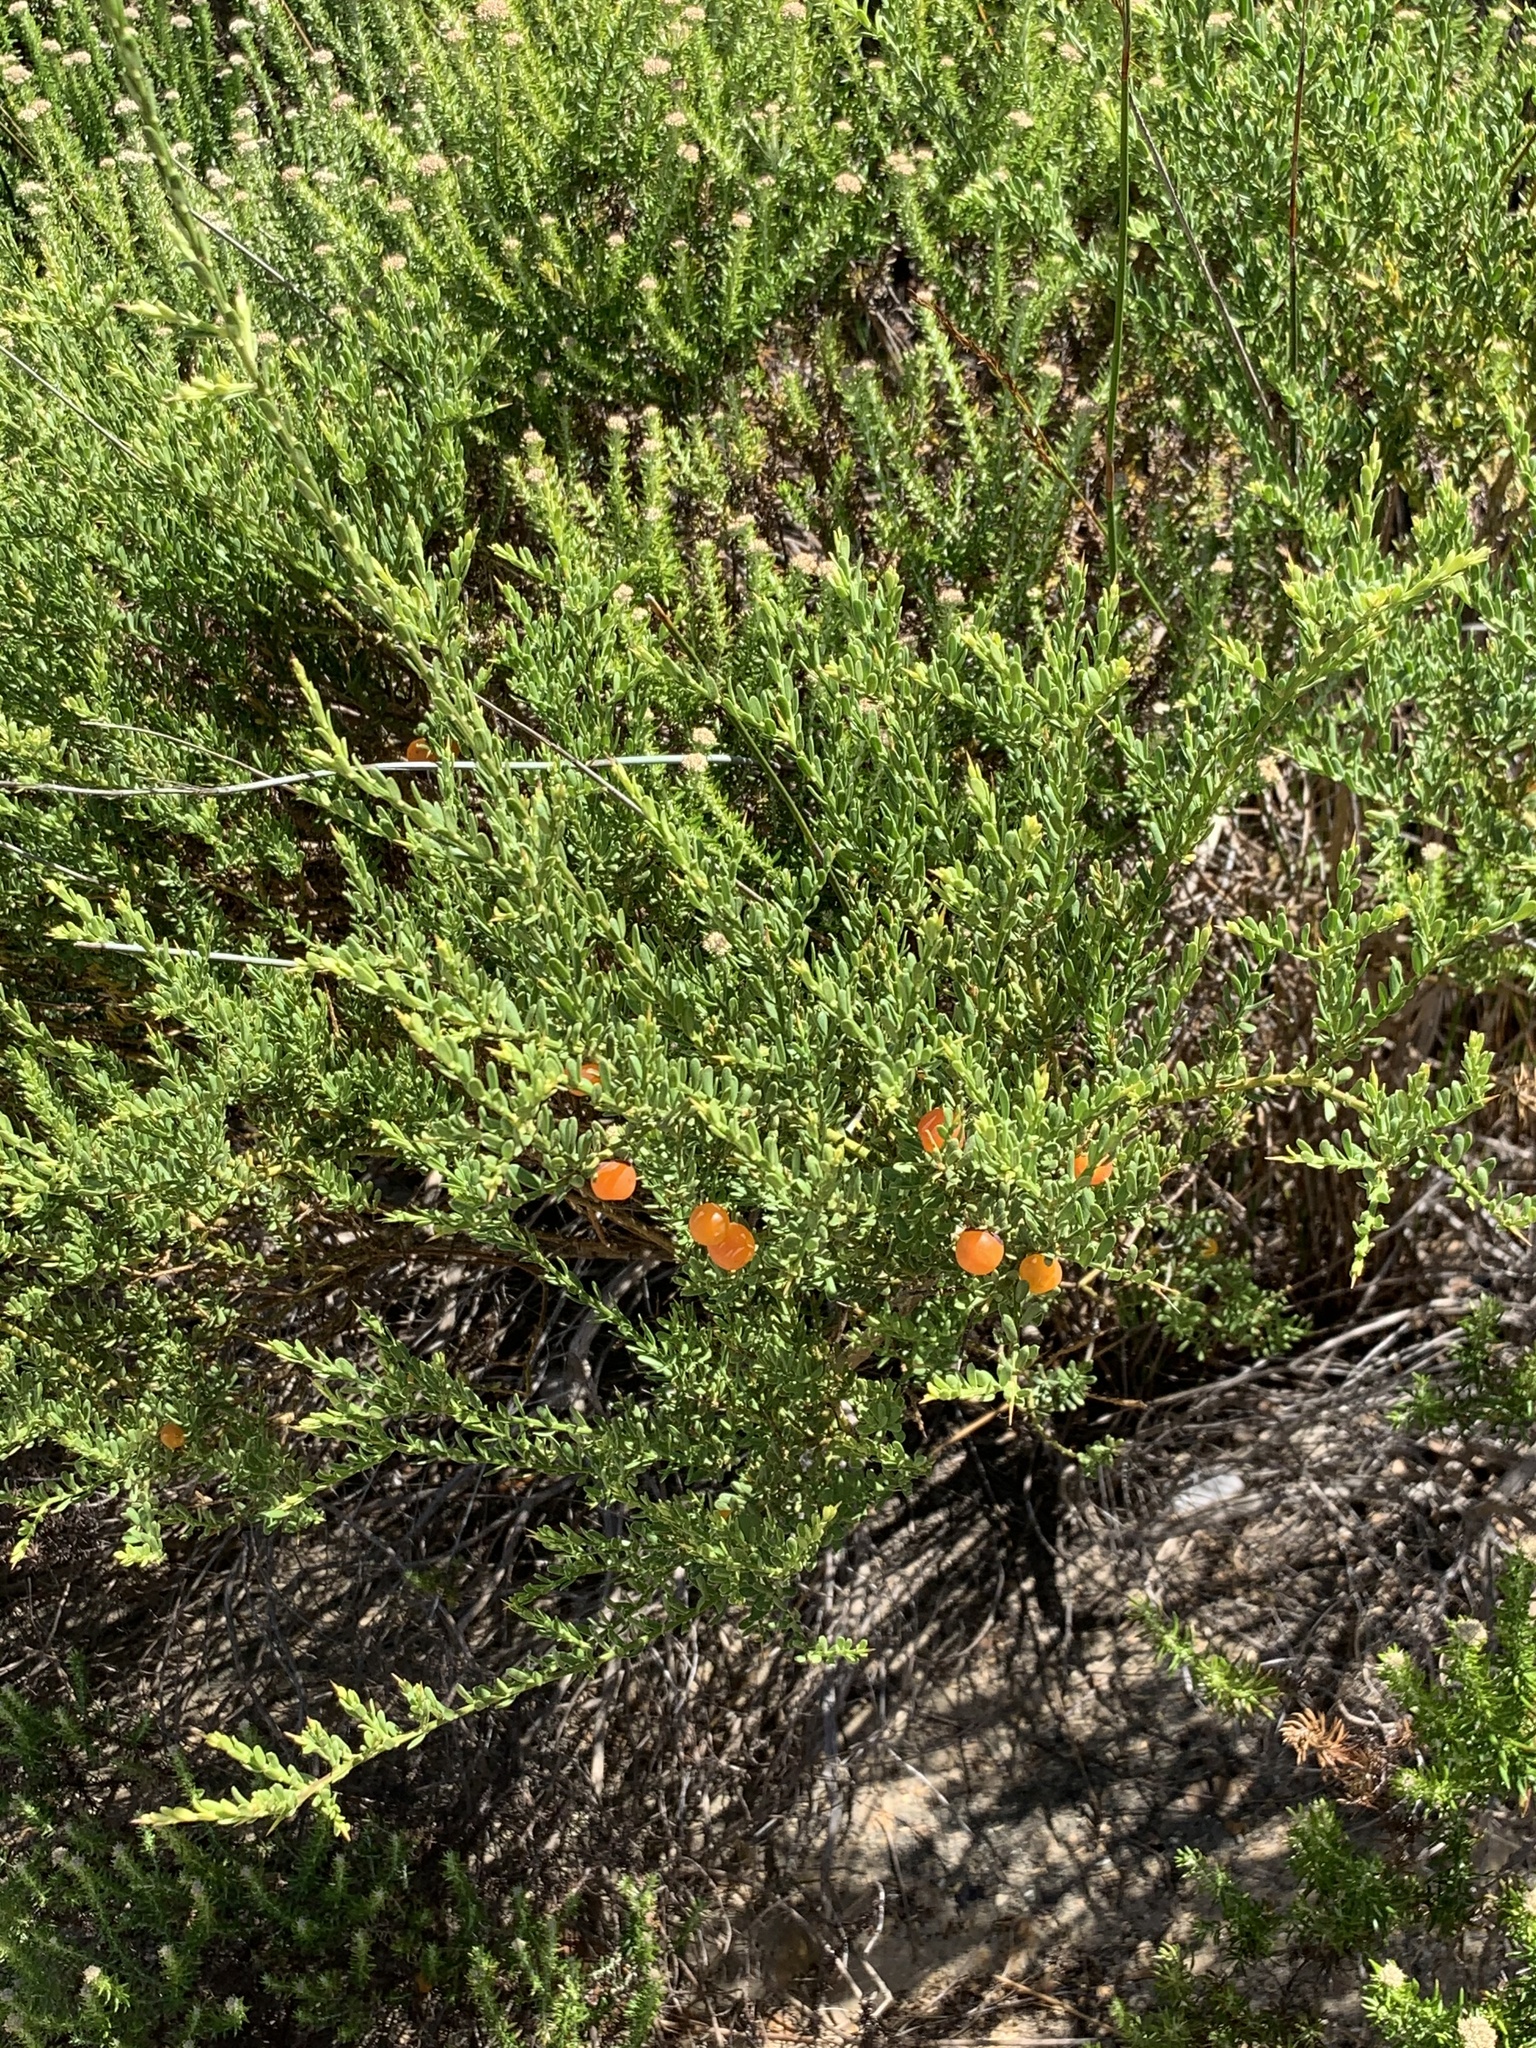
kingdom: Plantae
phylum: Tracheophyta
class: Magnoliopsida
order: Fabales
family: Polygalaceae
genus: Muraltia
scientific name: Muraltia spinosa
